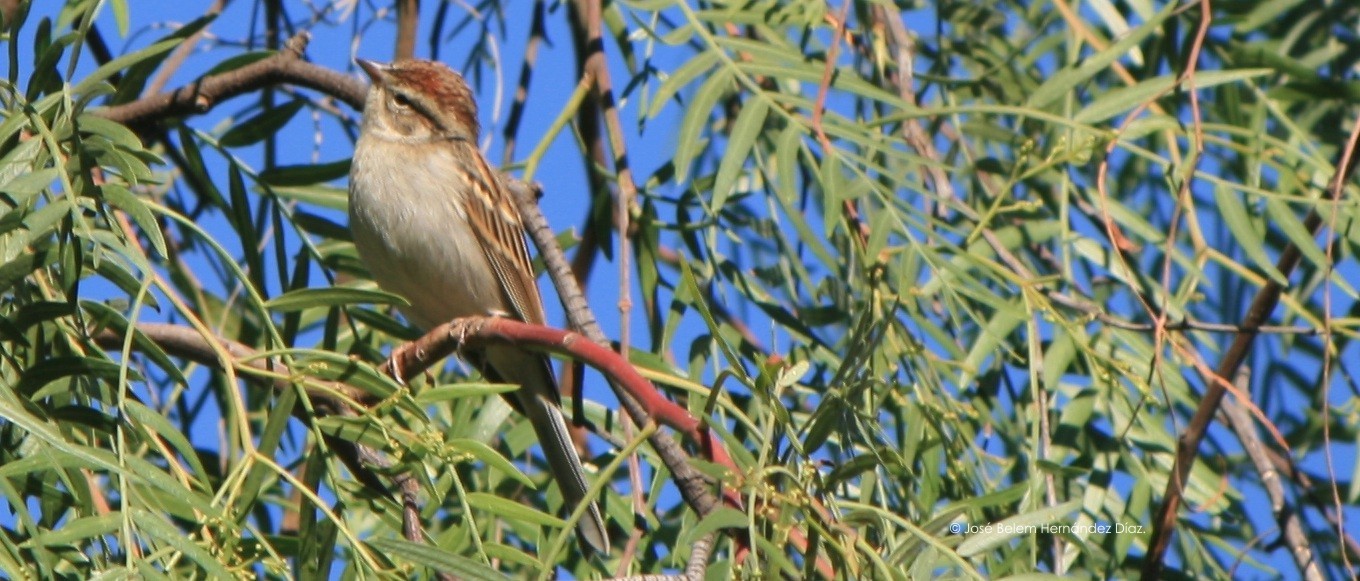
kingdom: Animalia
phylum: Chordata
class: Aves
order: Passeriformes
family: Passerellidae
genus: Spizella
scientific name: Spizella passerina
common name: Chipping sparrow
